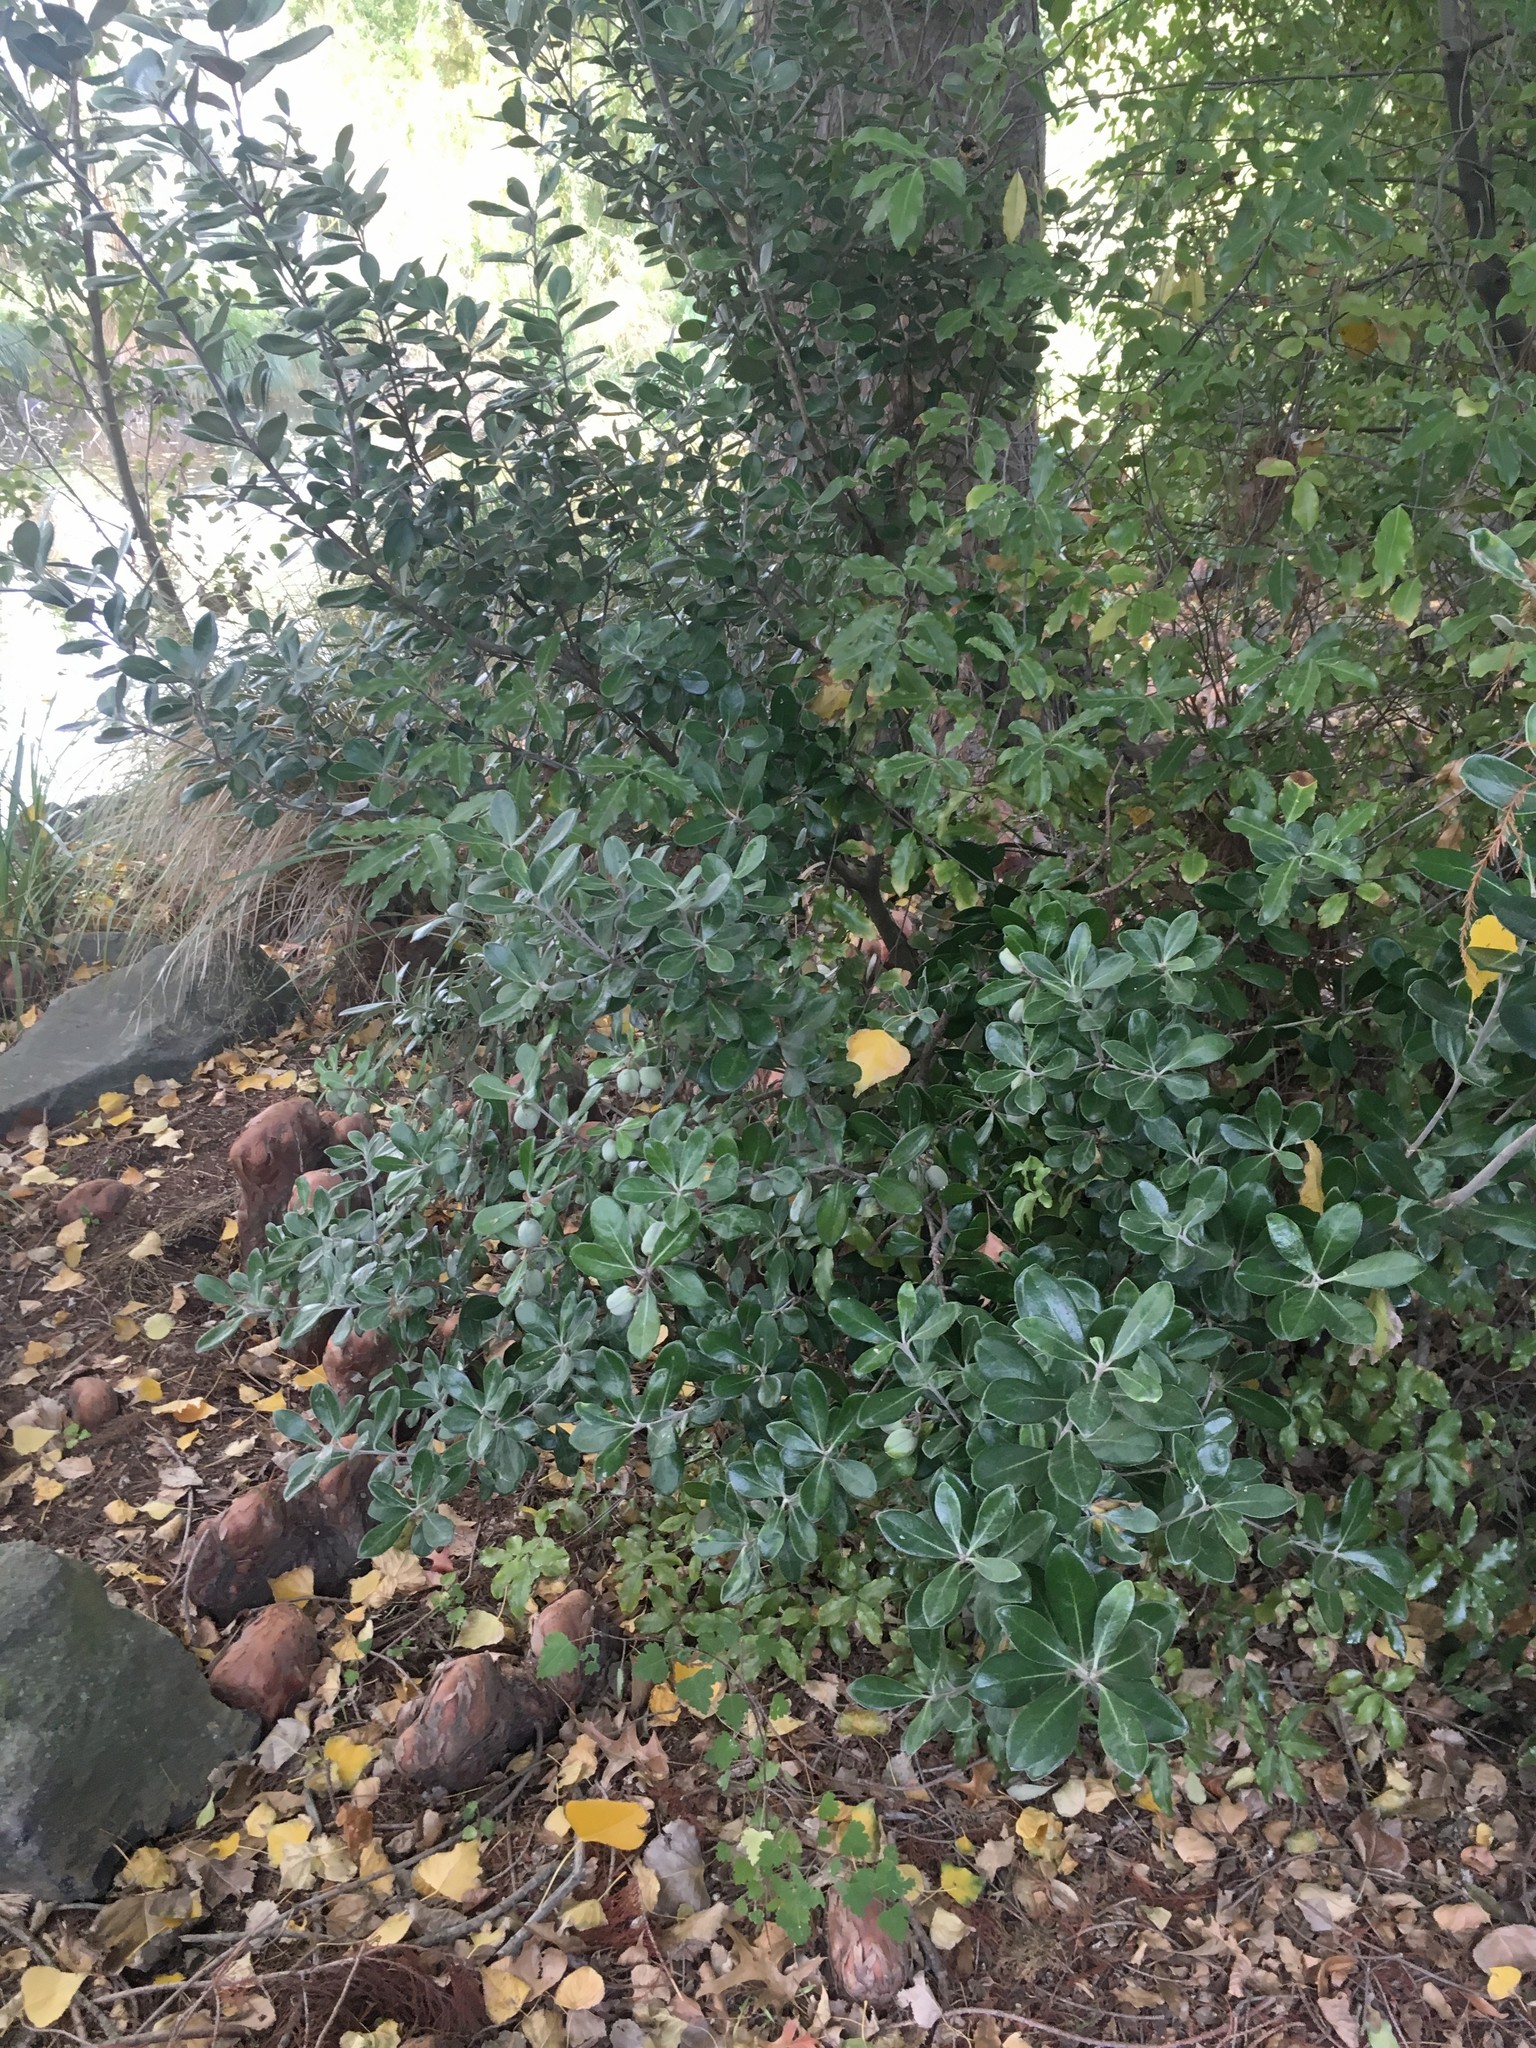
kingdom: Plantae
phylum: Tracheophyta
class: Magnoliopsida
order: Apiales
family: Pittosporaceae
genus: Pittosporum
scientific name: Pittosporum crassifolium
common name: Karo
